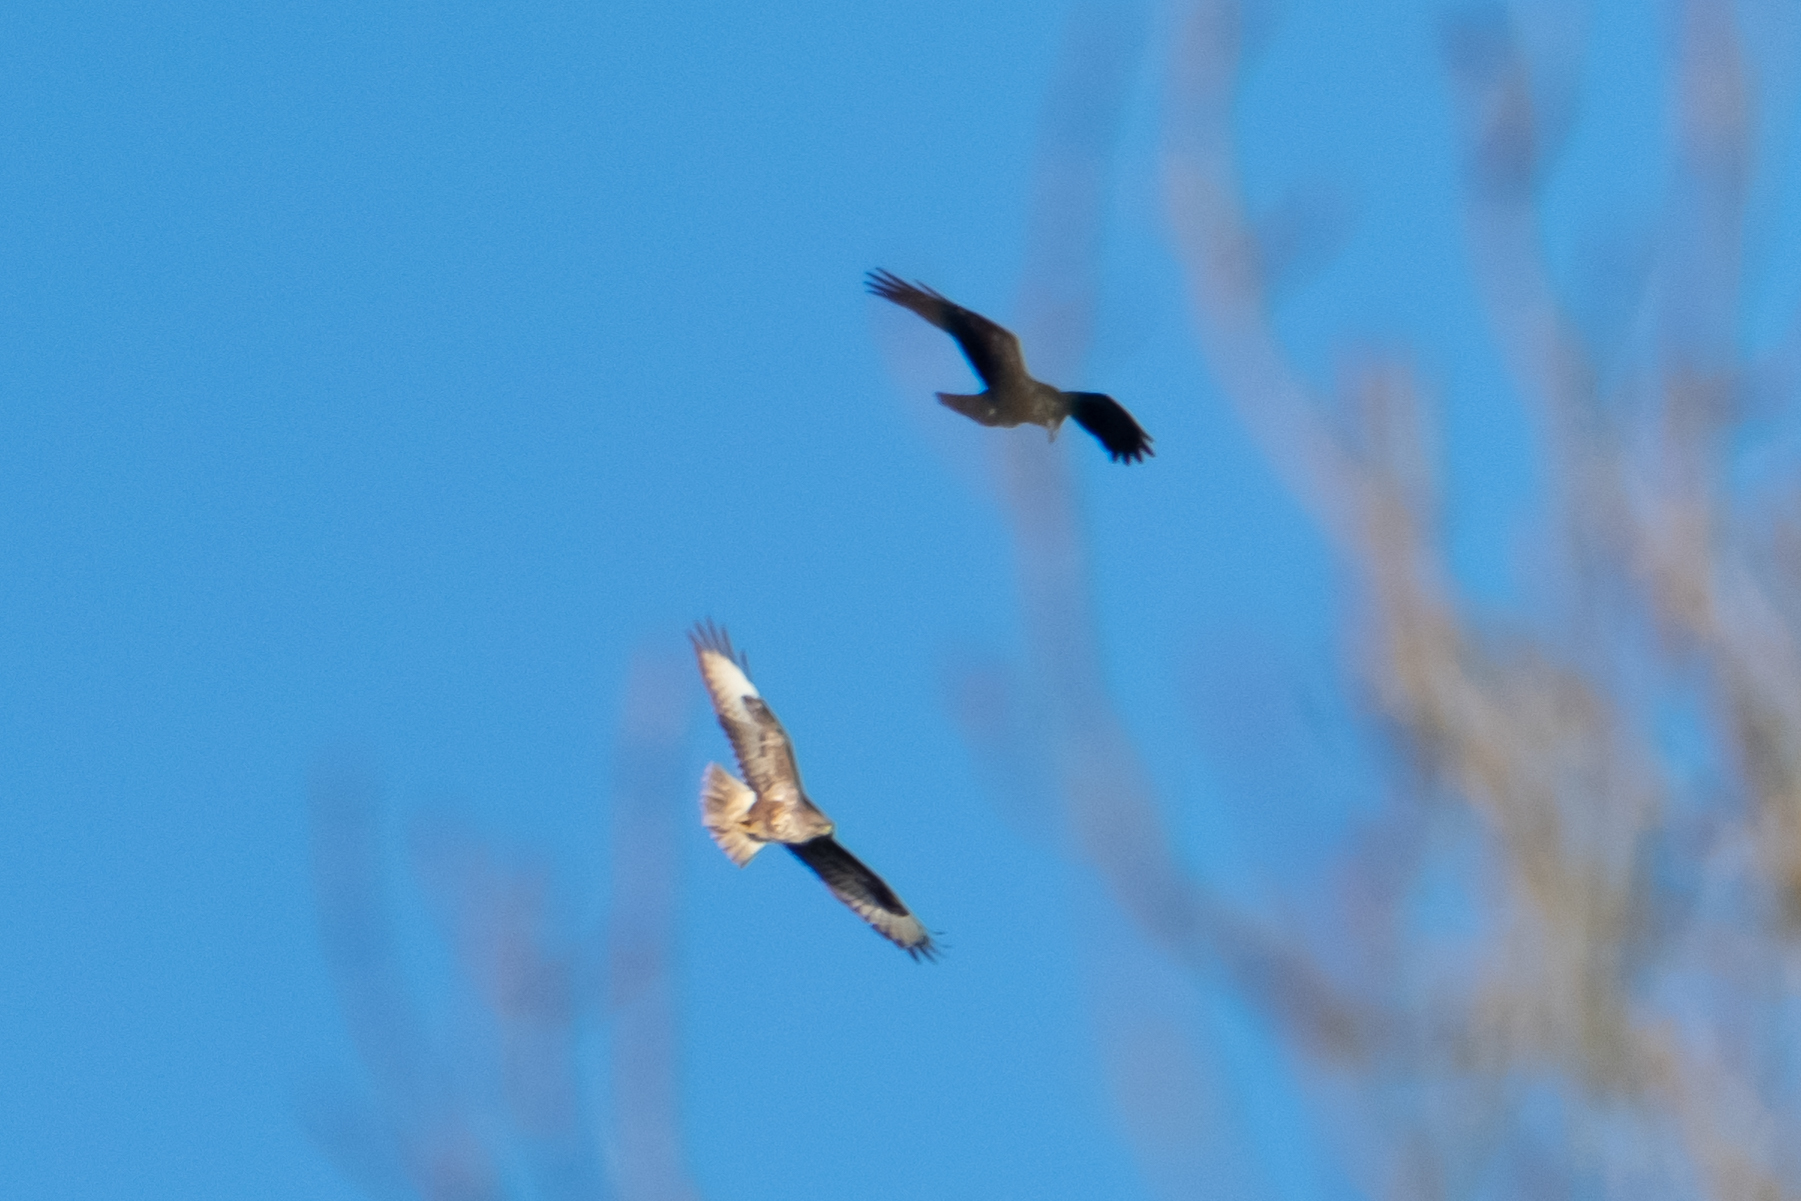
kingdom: Animalia
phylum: Chordata
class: Aves
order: Accipitriformes
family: Accipitridae
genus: Buteo
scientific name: Buteo buteo
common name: Common buzzard
